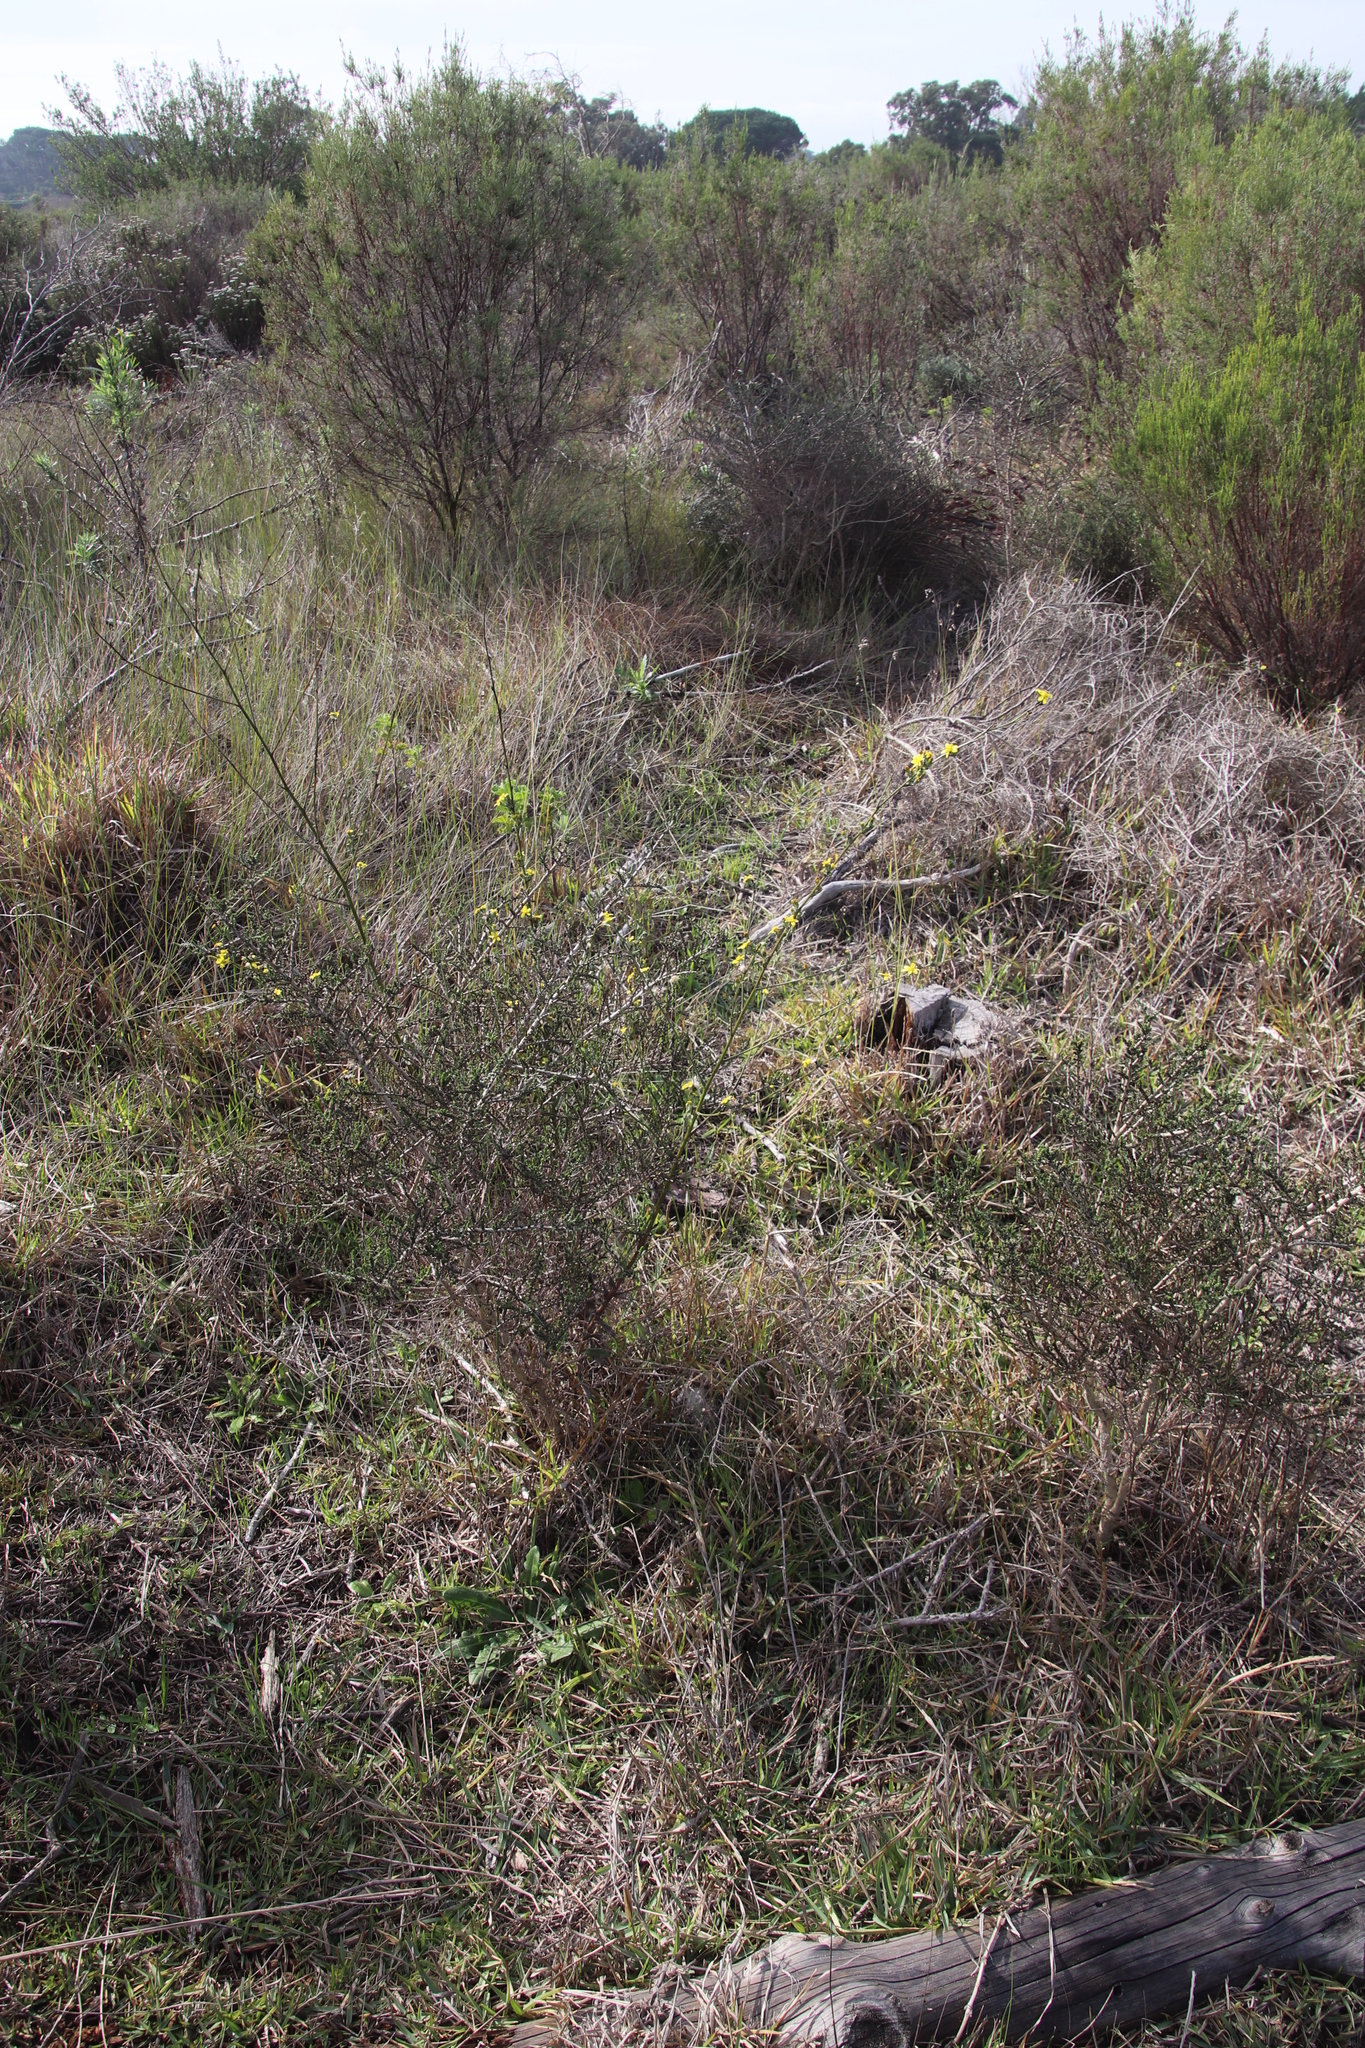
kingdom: Plantae
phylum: Tracheophyta
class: Magnoliopsida
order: Asterales
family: Asteraceae
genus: Senecio
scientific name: Senecio pubigerus
